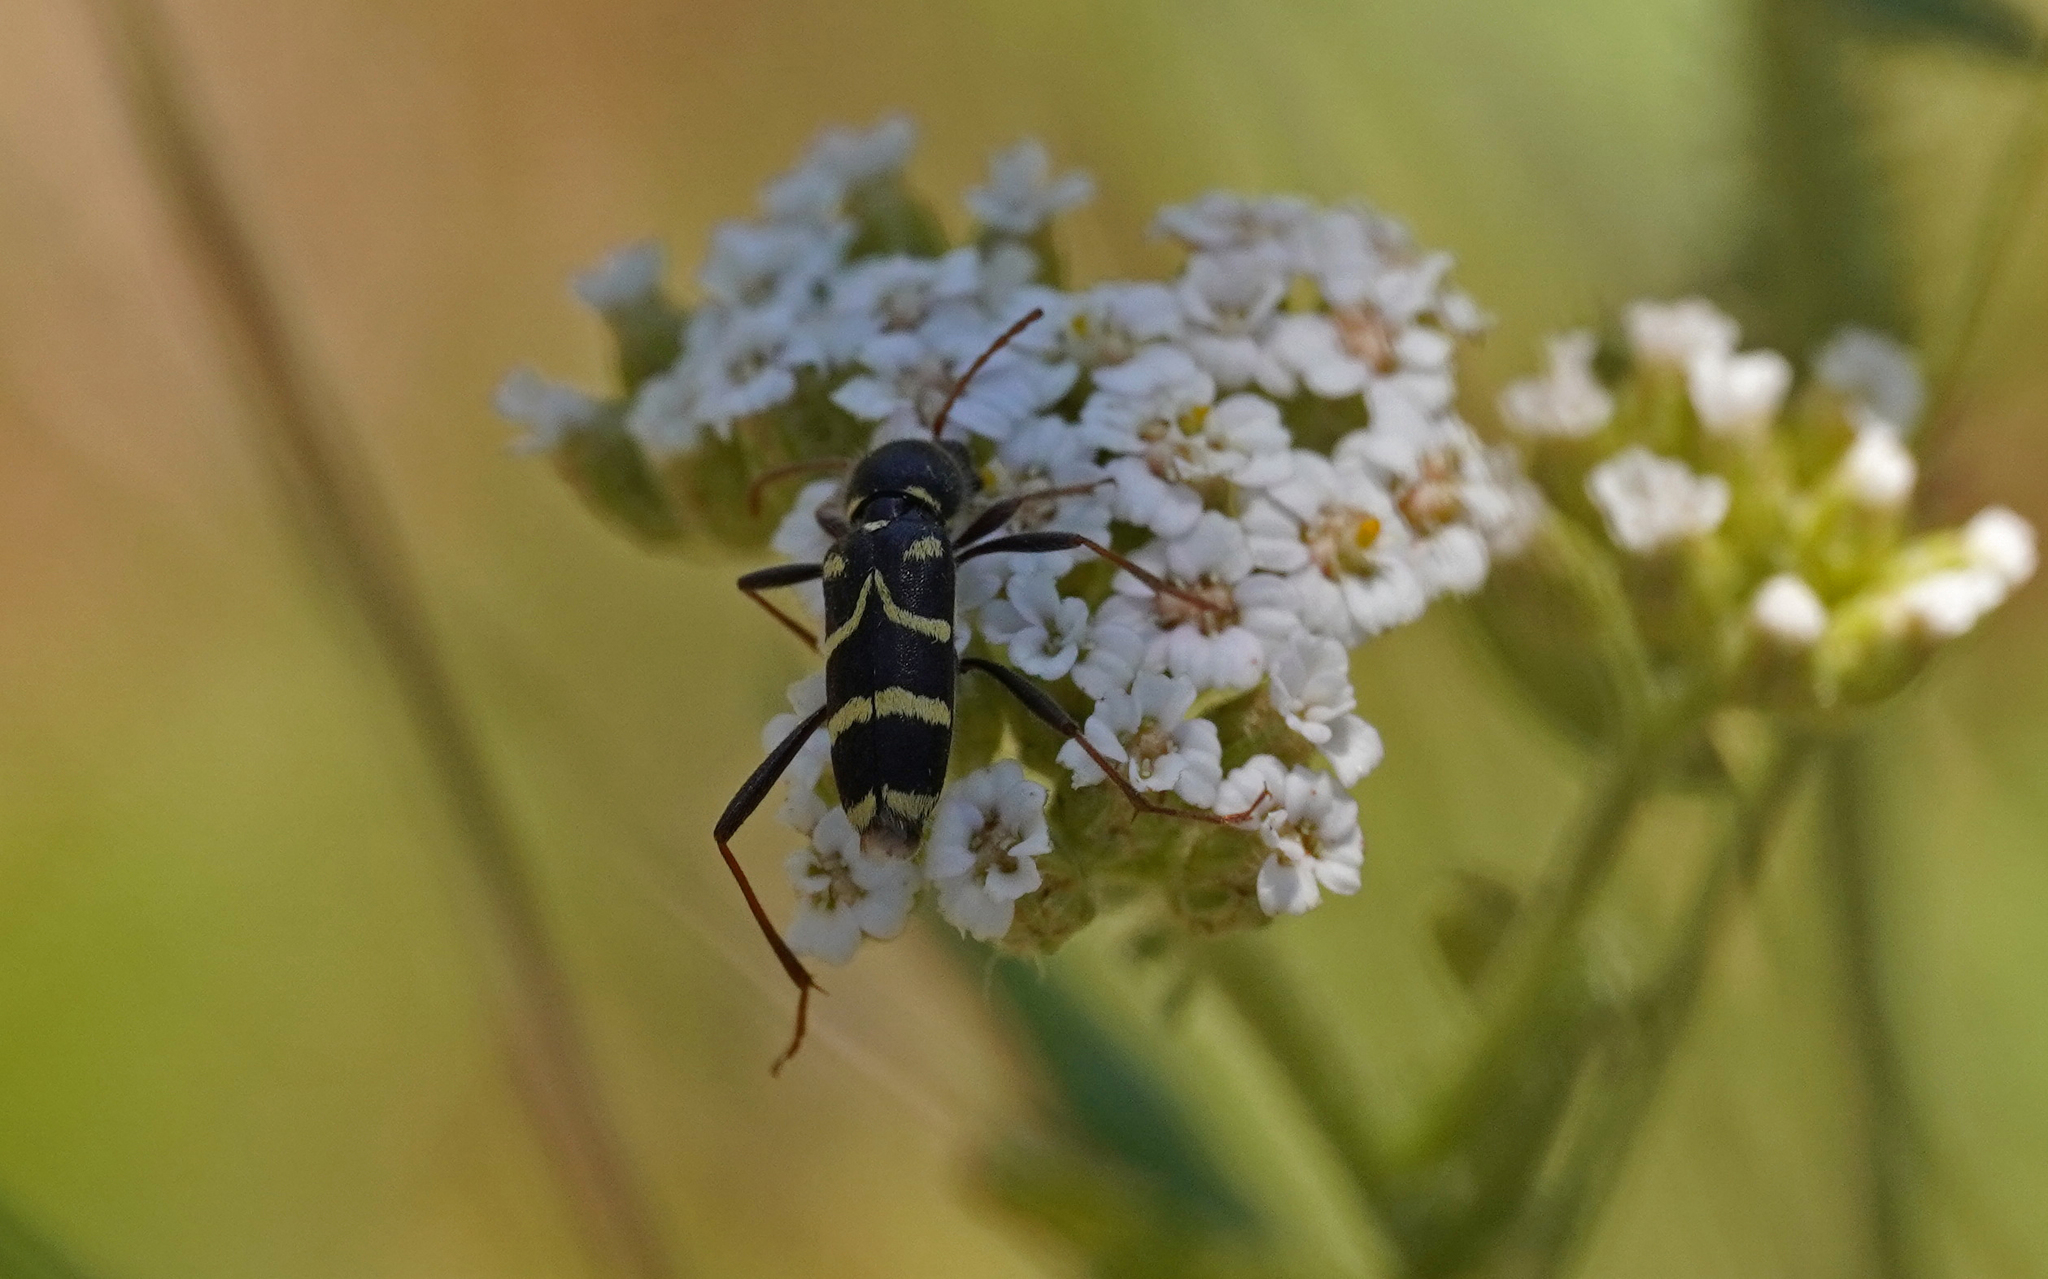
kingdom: Animalia
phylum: Arthropoda
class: Insecta
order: Coleoptera
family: Cerambycidae
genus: Clytus
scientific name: Clytus rhamni
